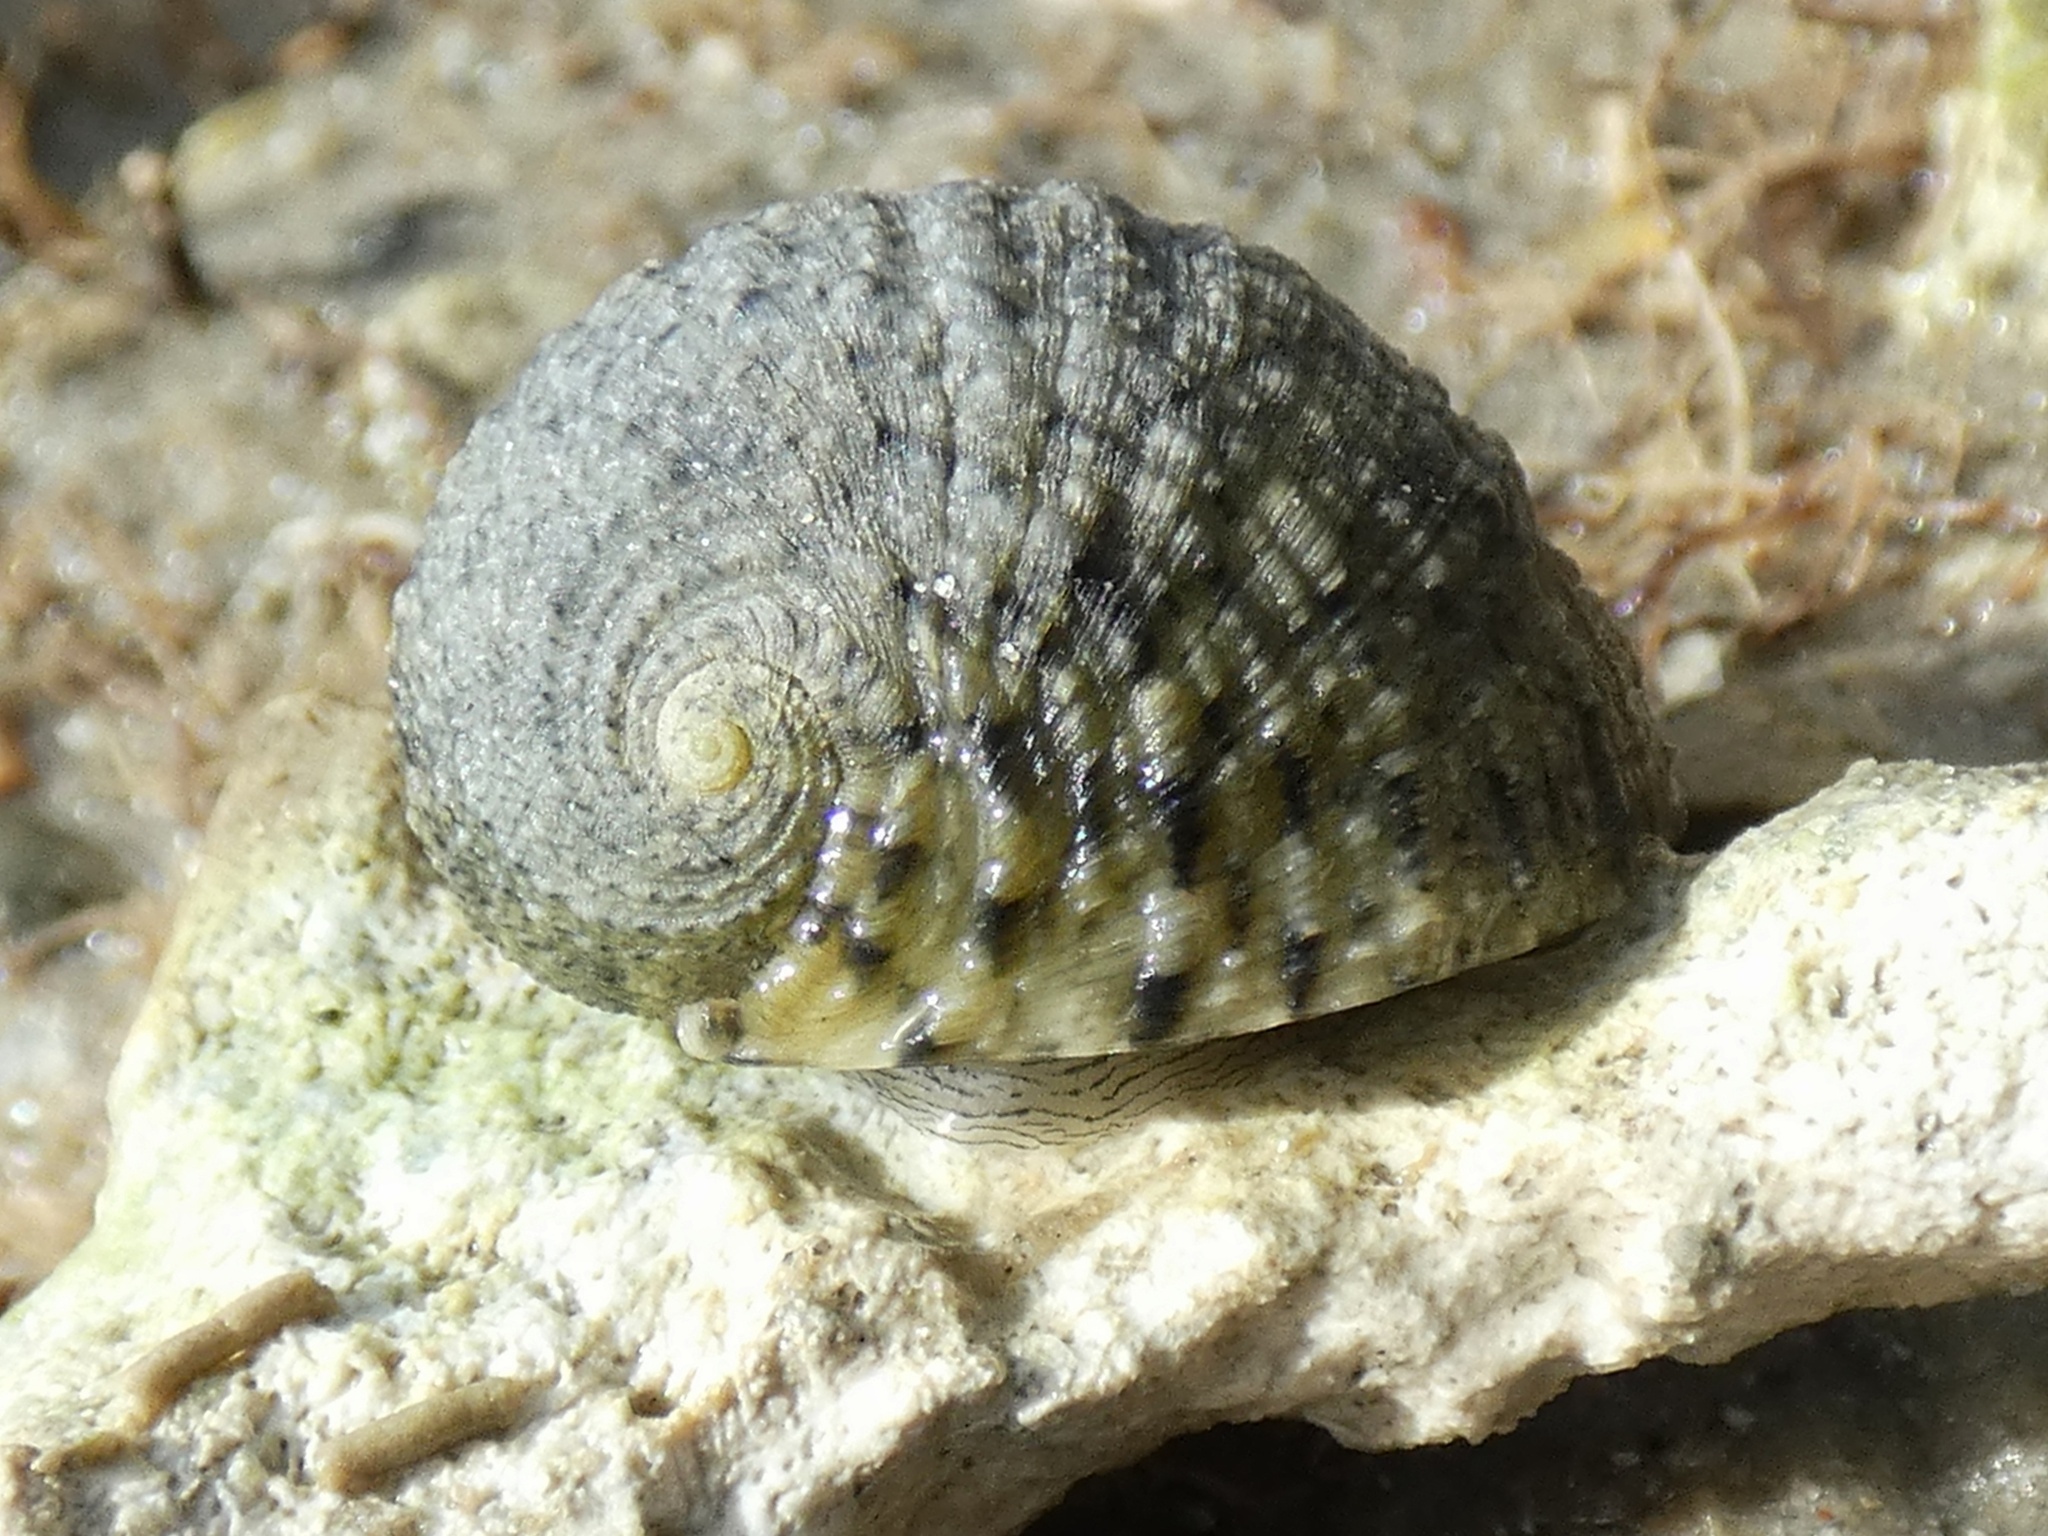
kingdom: Animalia
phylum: Mollusca
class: Gastropoda
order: Cycloneritida
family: Neritidae
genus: Nerita
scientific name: Nerita histrio
